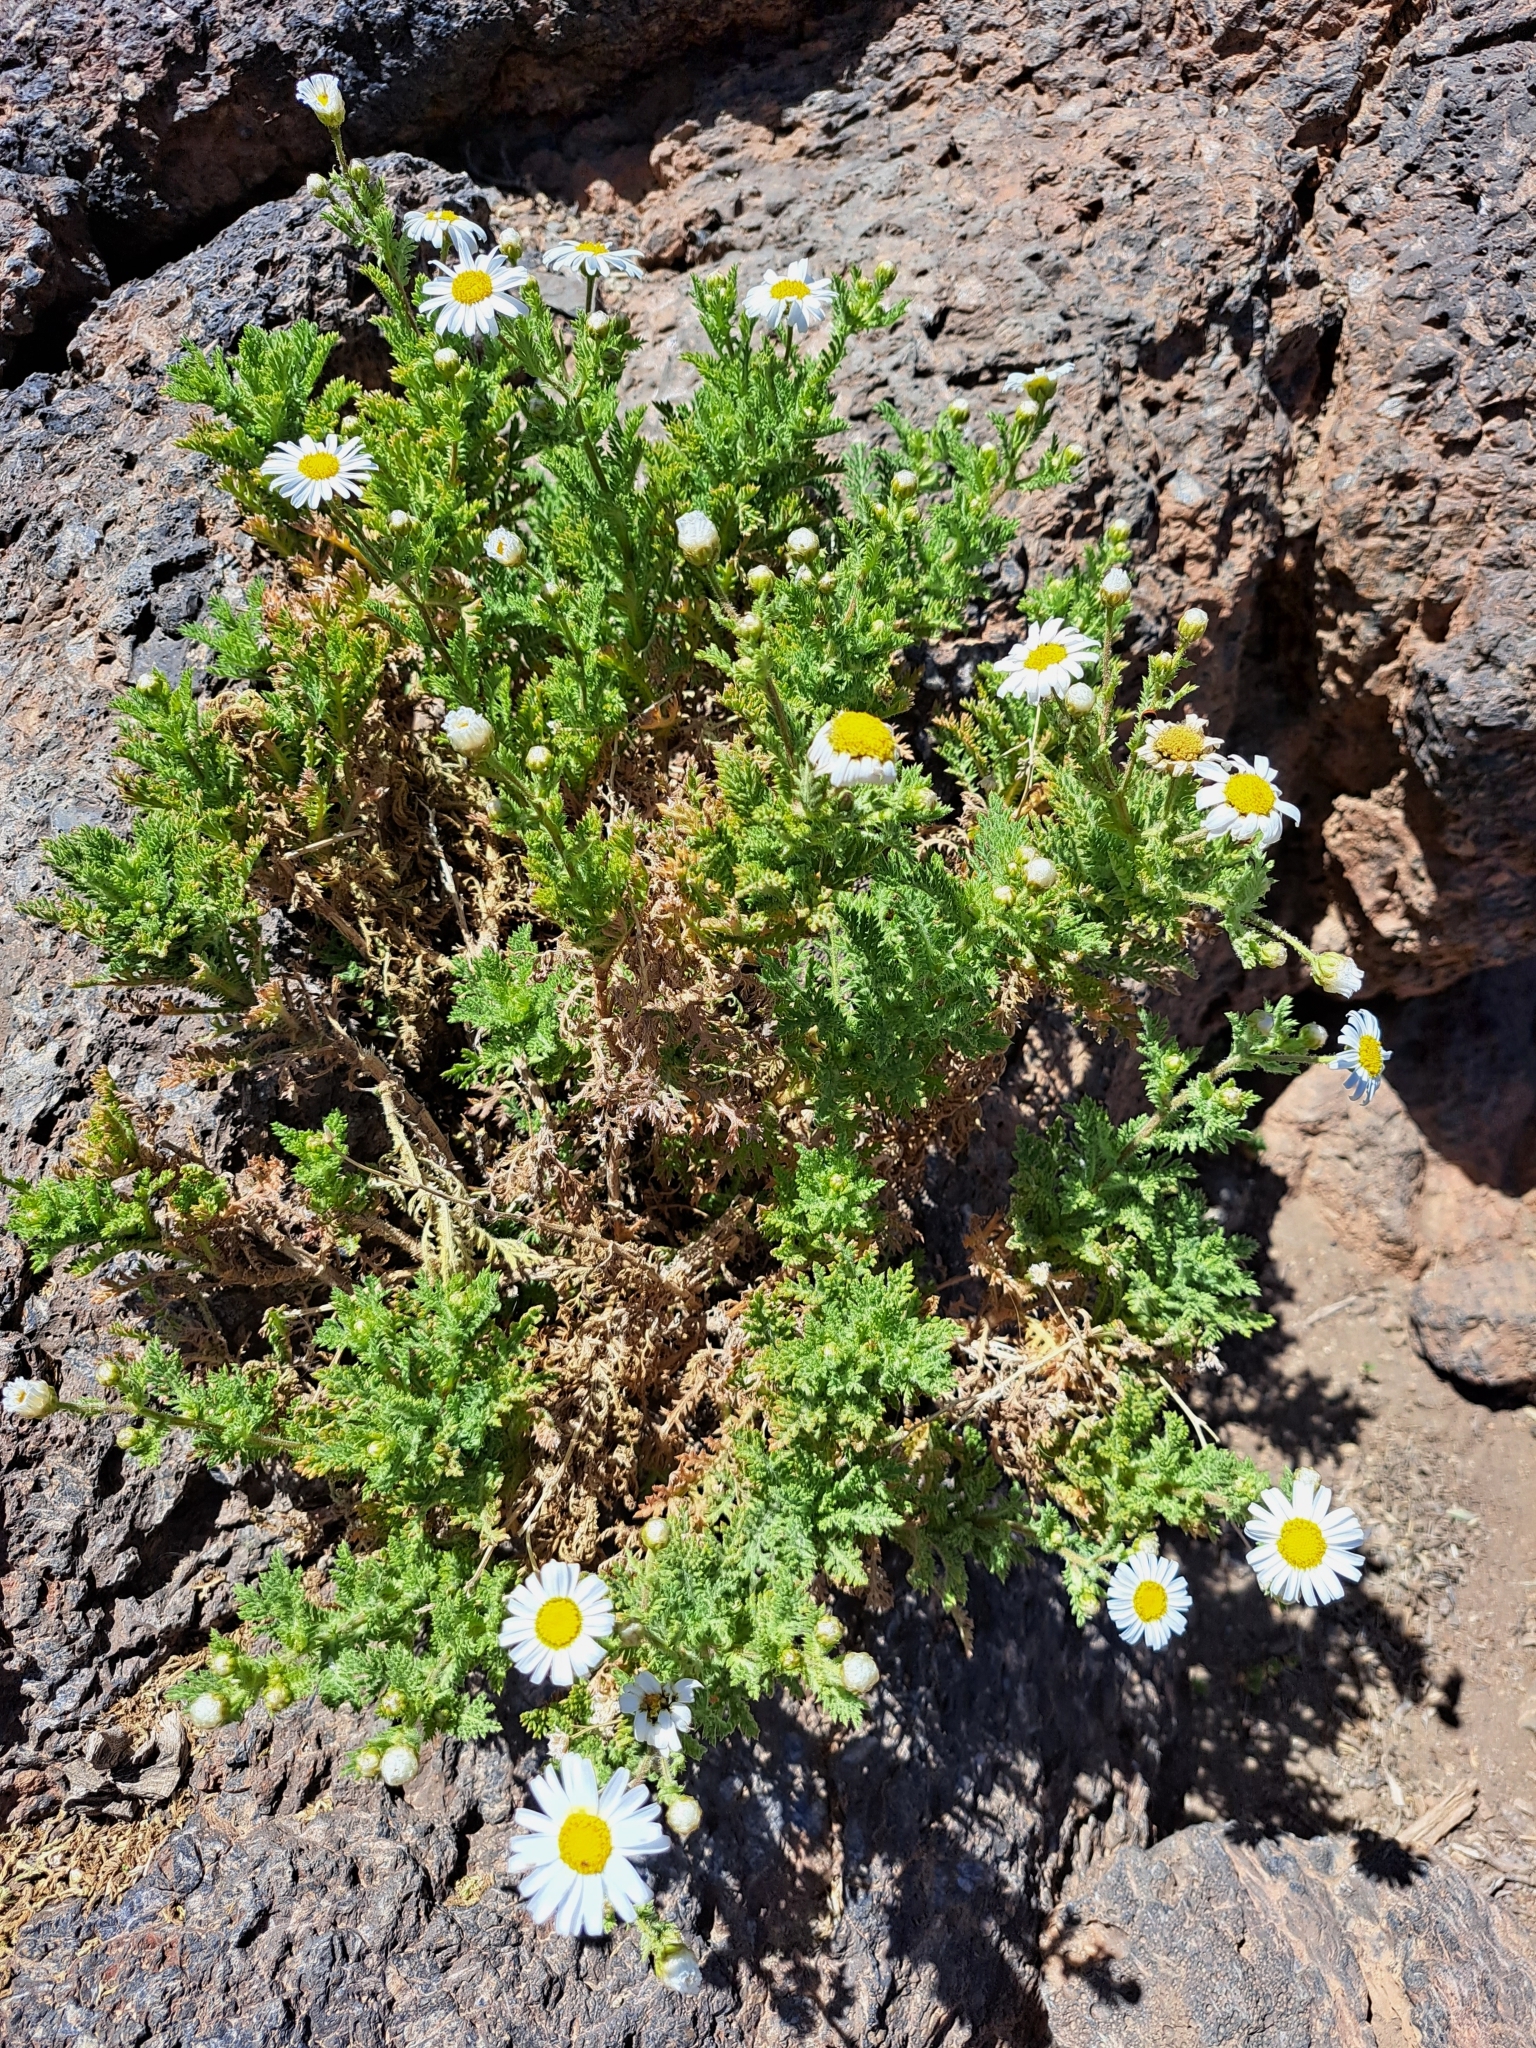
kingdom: Plantae
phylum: Tracheophyta
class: Magnoliopsida
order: Asterales
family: Asteraceae
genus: Argyranthemum
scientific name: Argyranthemum tenerifae
